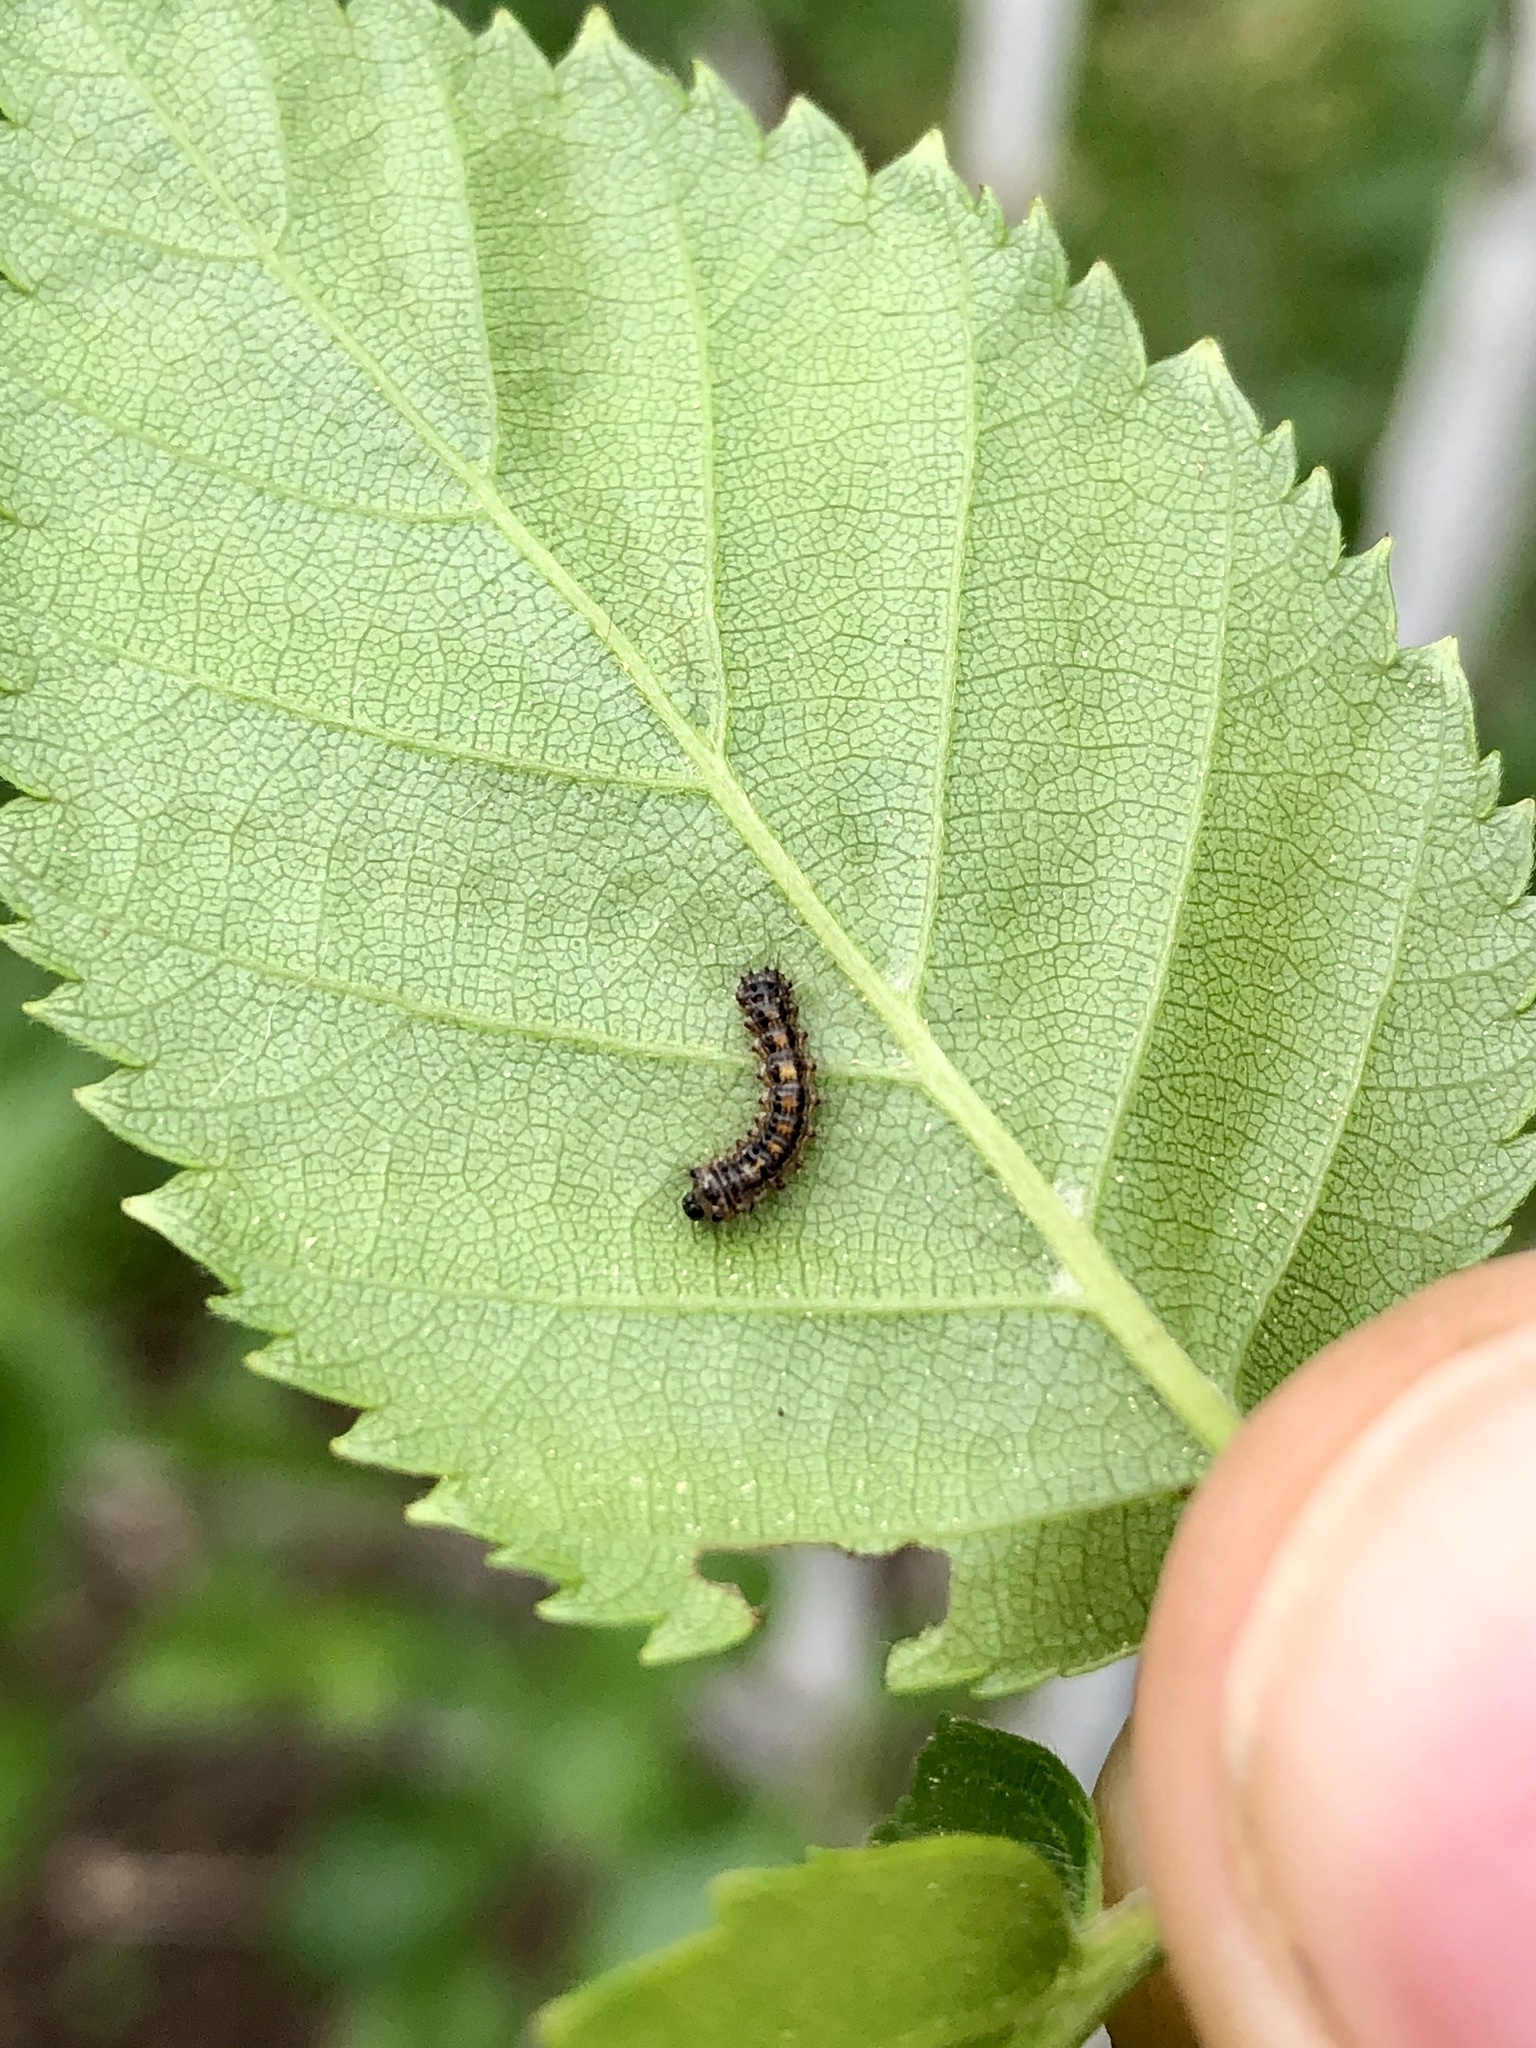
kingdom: Animalia
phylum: Arthropoda
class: Insecta
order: Lepidoptera
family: Erebidae
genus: Lymantria
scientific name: Lymantria dispar
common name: Gypsy moth
